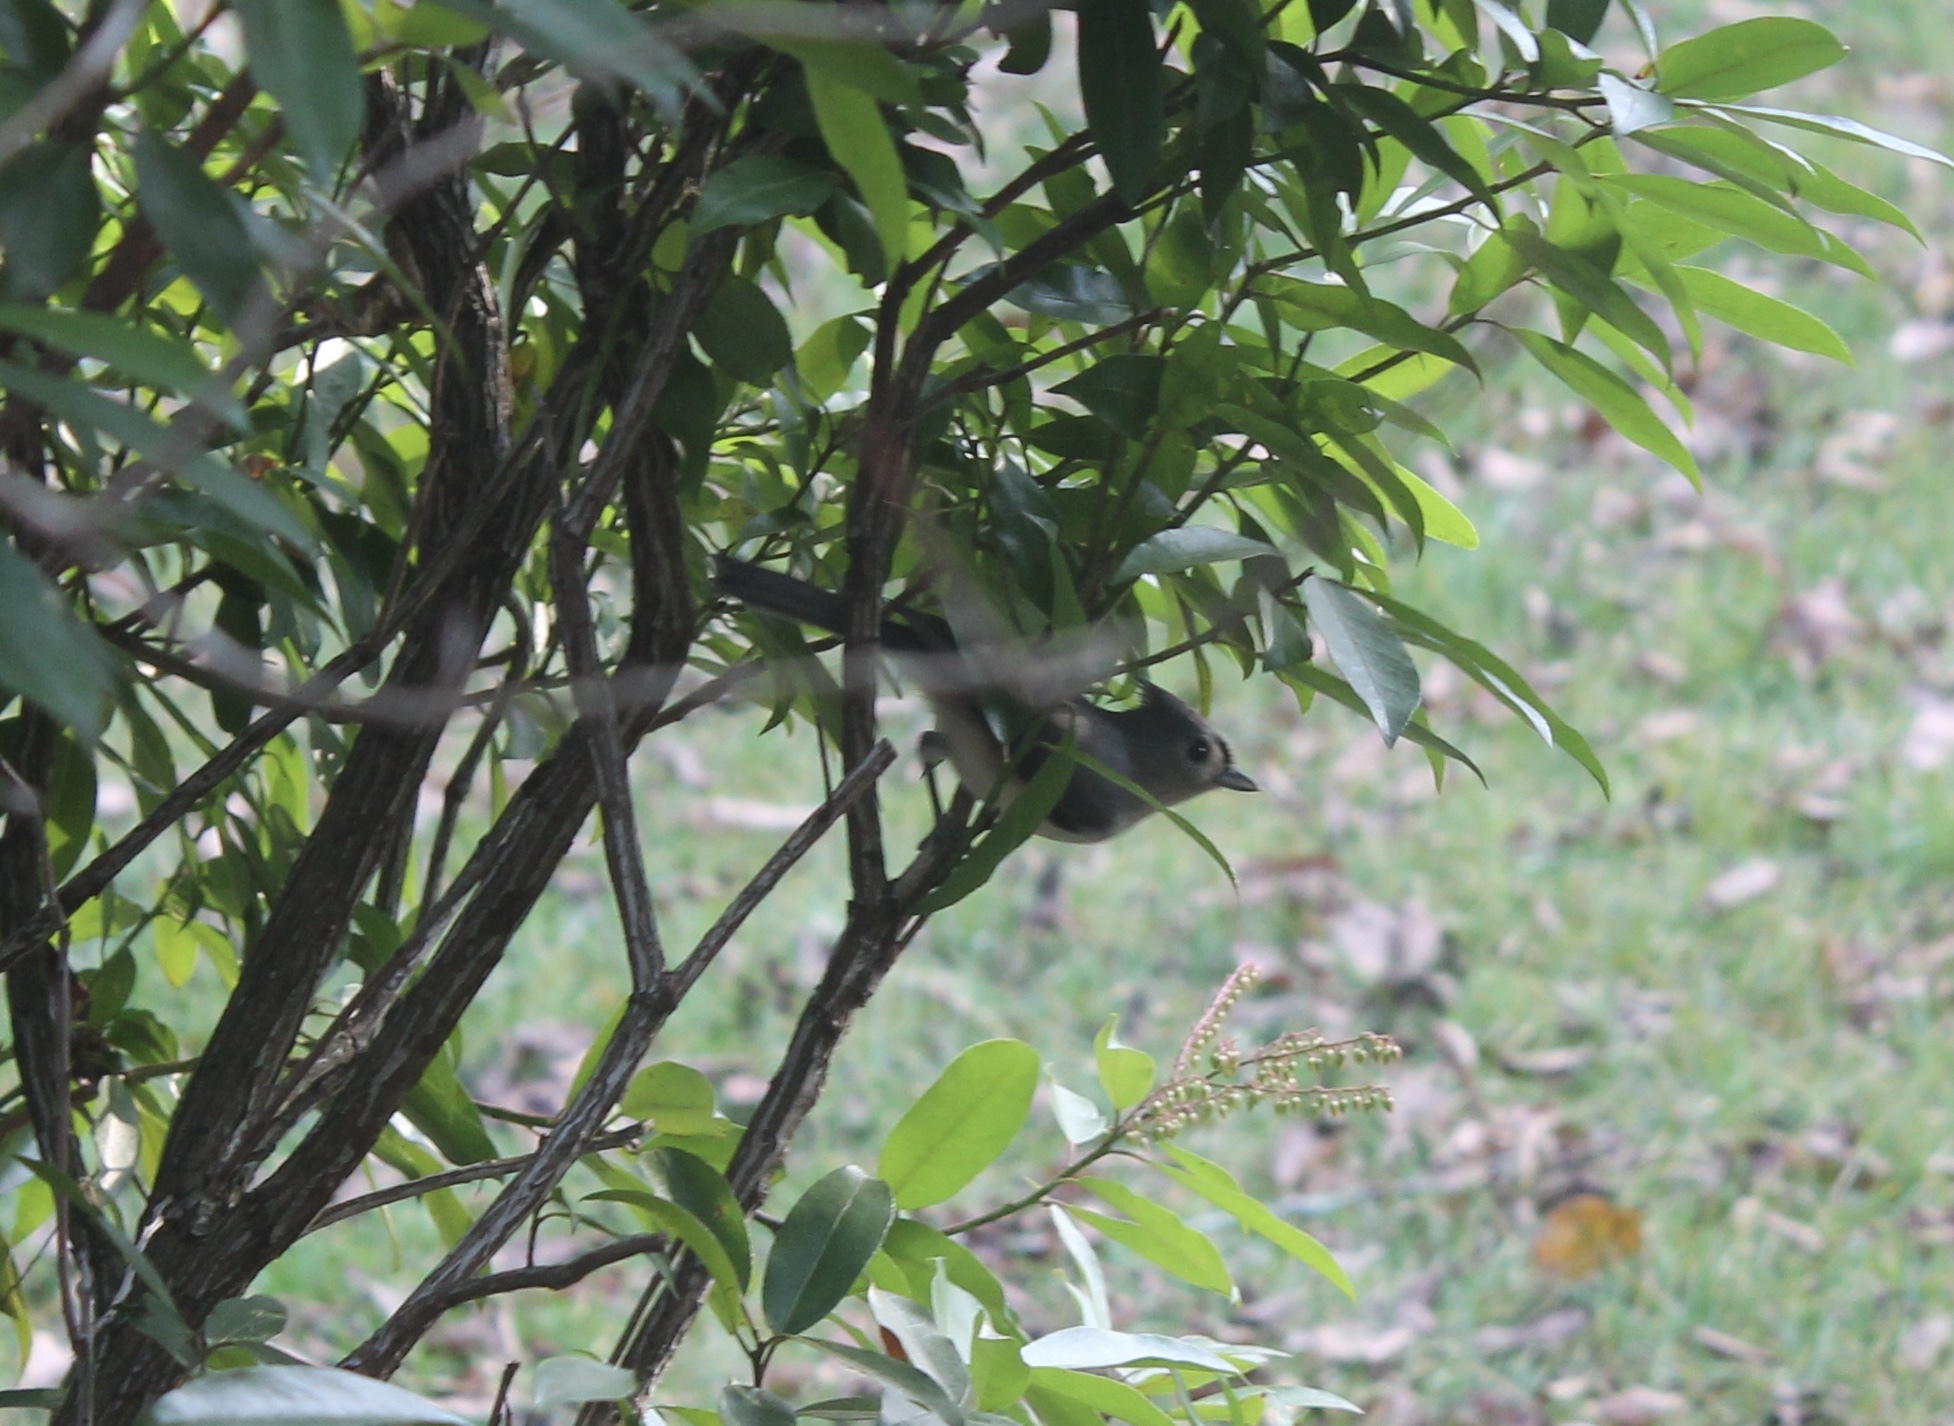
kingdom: Animalia
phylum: Chordata
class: Aves
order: Passeriformes
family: Paridae
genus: Baeolophus
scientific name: Baeolophus bicolor
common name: Tufted titmouse
